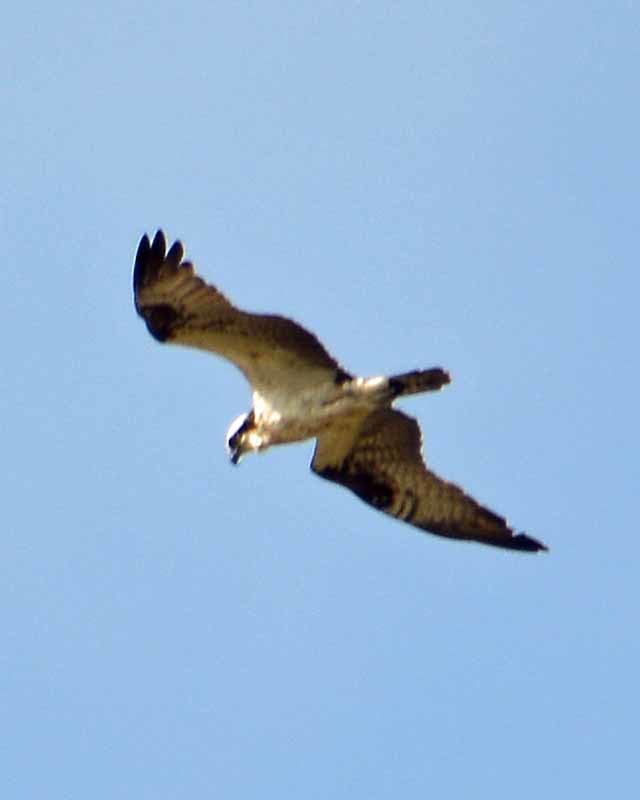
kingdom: Animalia
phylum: Chordata
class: Aves
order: Accipitriformes
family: Pandionidae
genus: Pandion
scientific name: Pandion haliaetus
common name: Osprey
